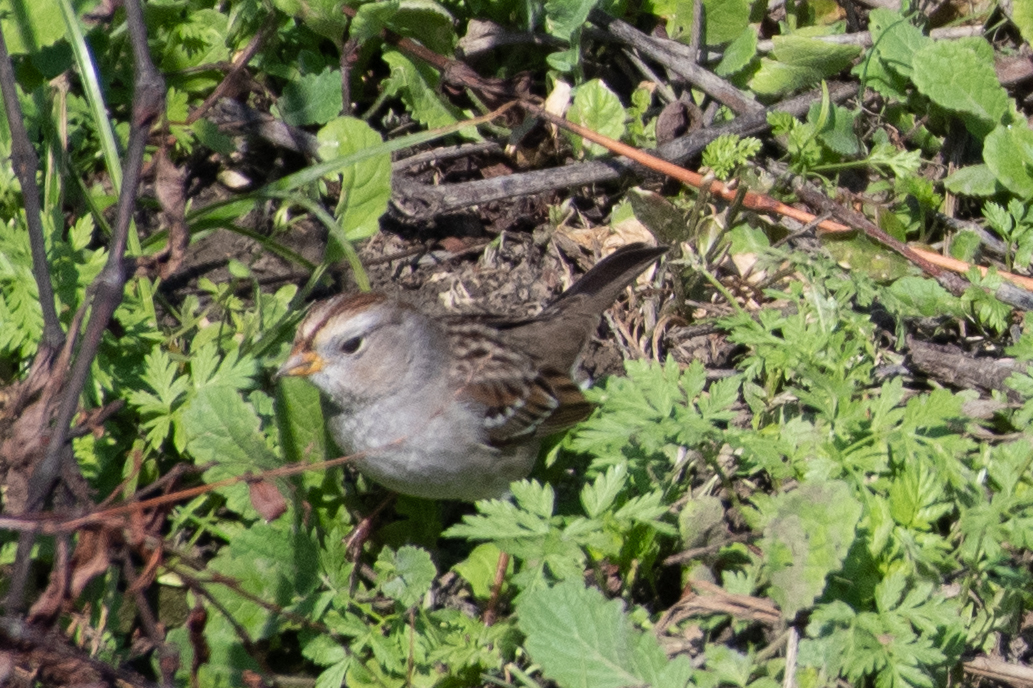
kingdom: Animalia
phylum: Chordata
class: Aves
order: Passeriformes
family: Passerellidae
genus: Zonotrichia
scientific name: Zonotrichia leucophrys
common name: White-crowned sparrow
